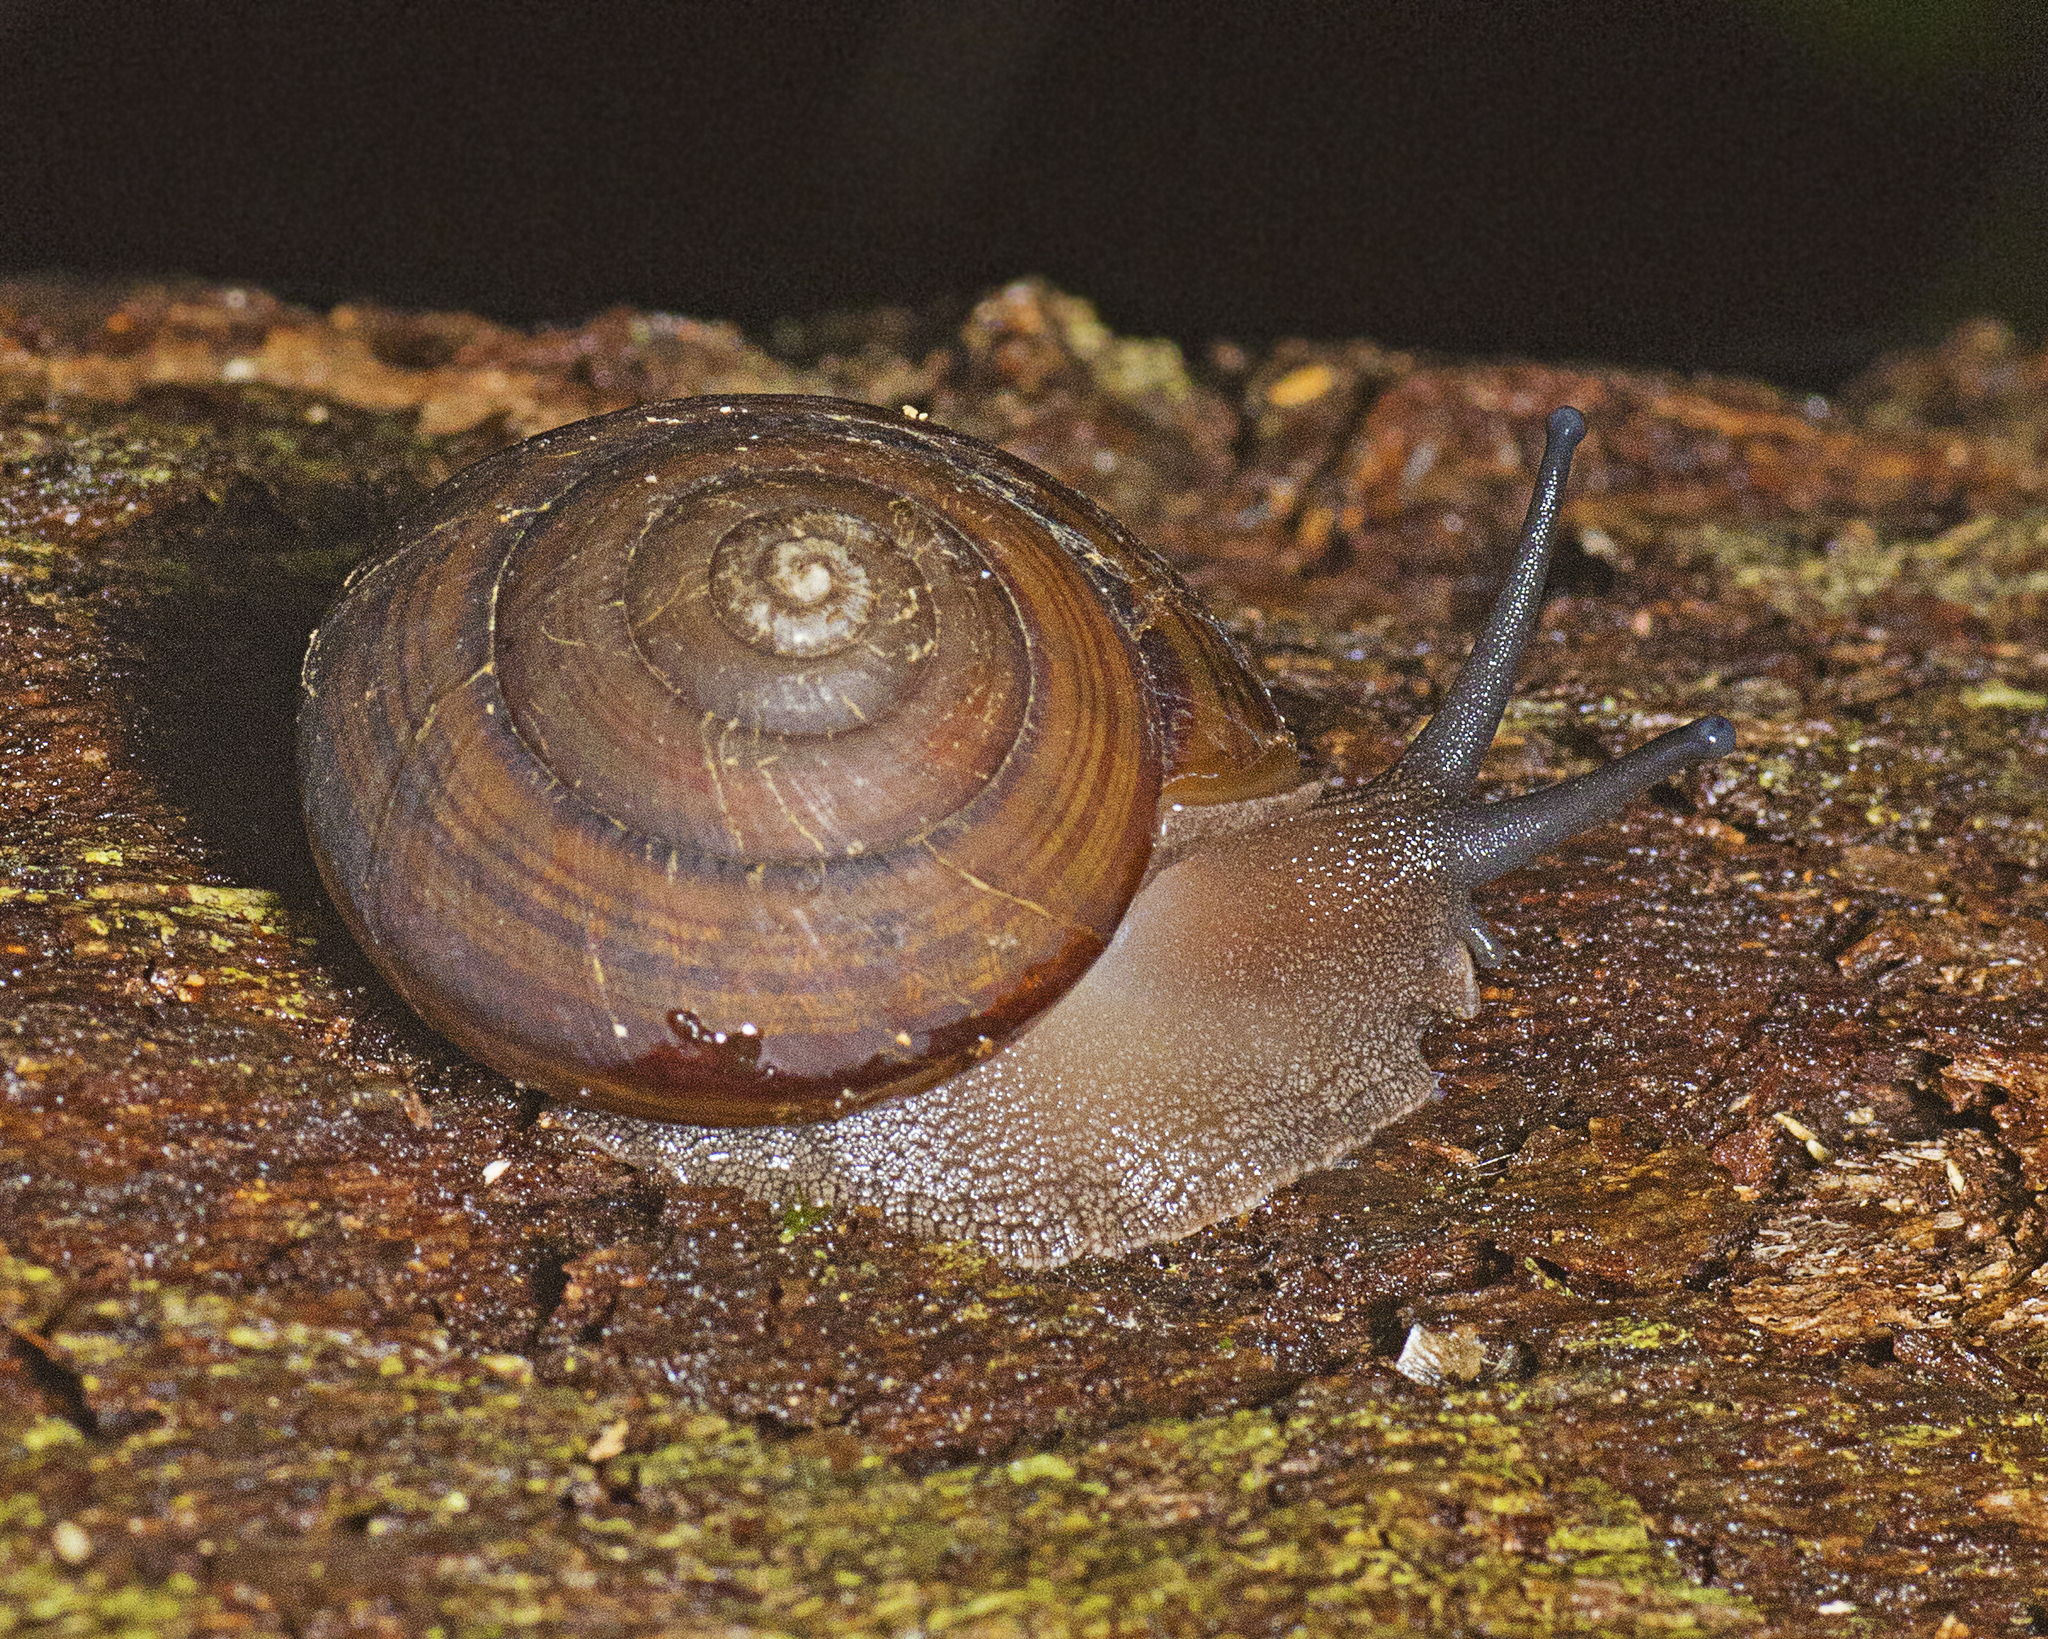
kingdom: Animalia
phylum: Mollusca
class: Gastropoda
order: Stylommatophora
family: Camaenidae
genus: Sphaerospira
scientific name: Sphaerospira fraseri
